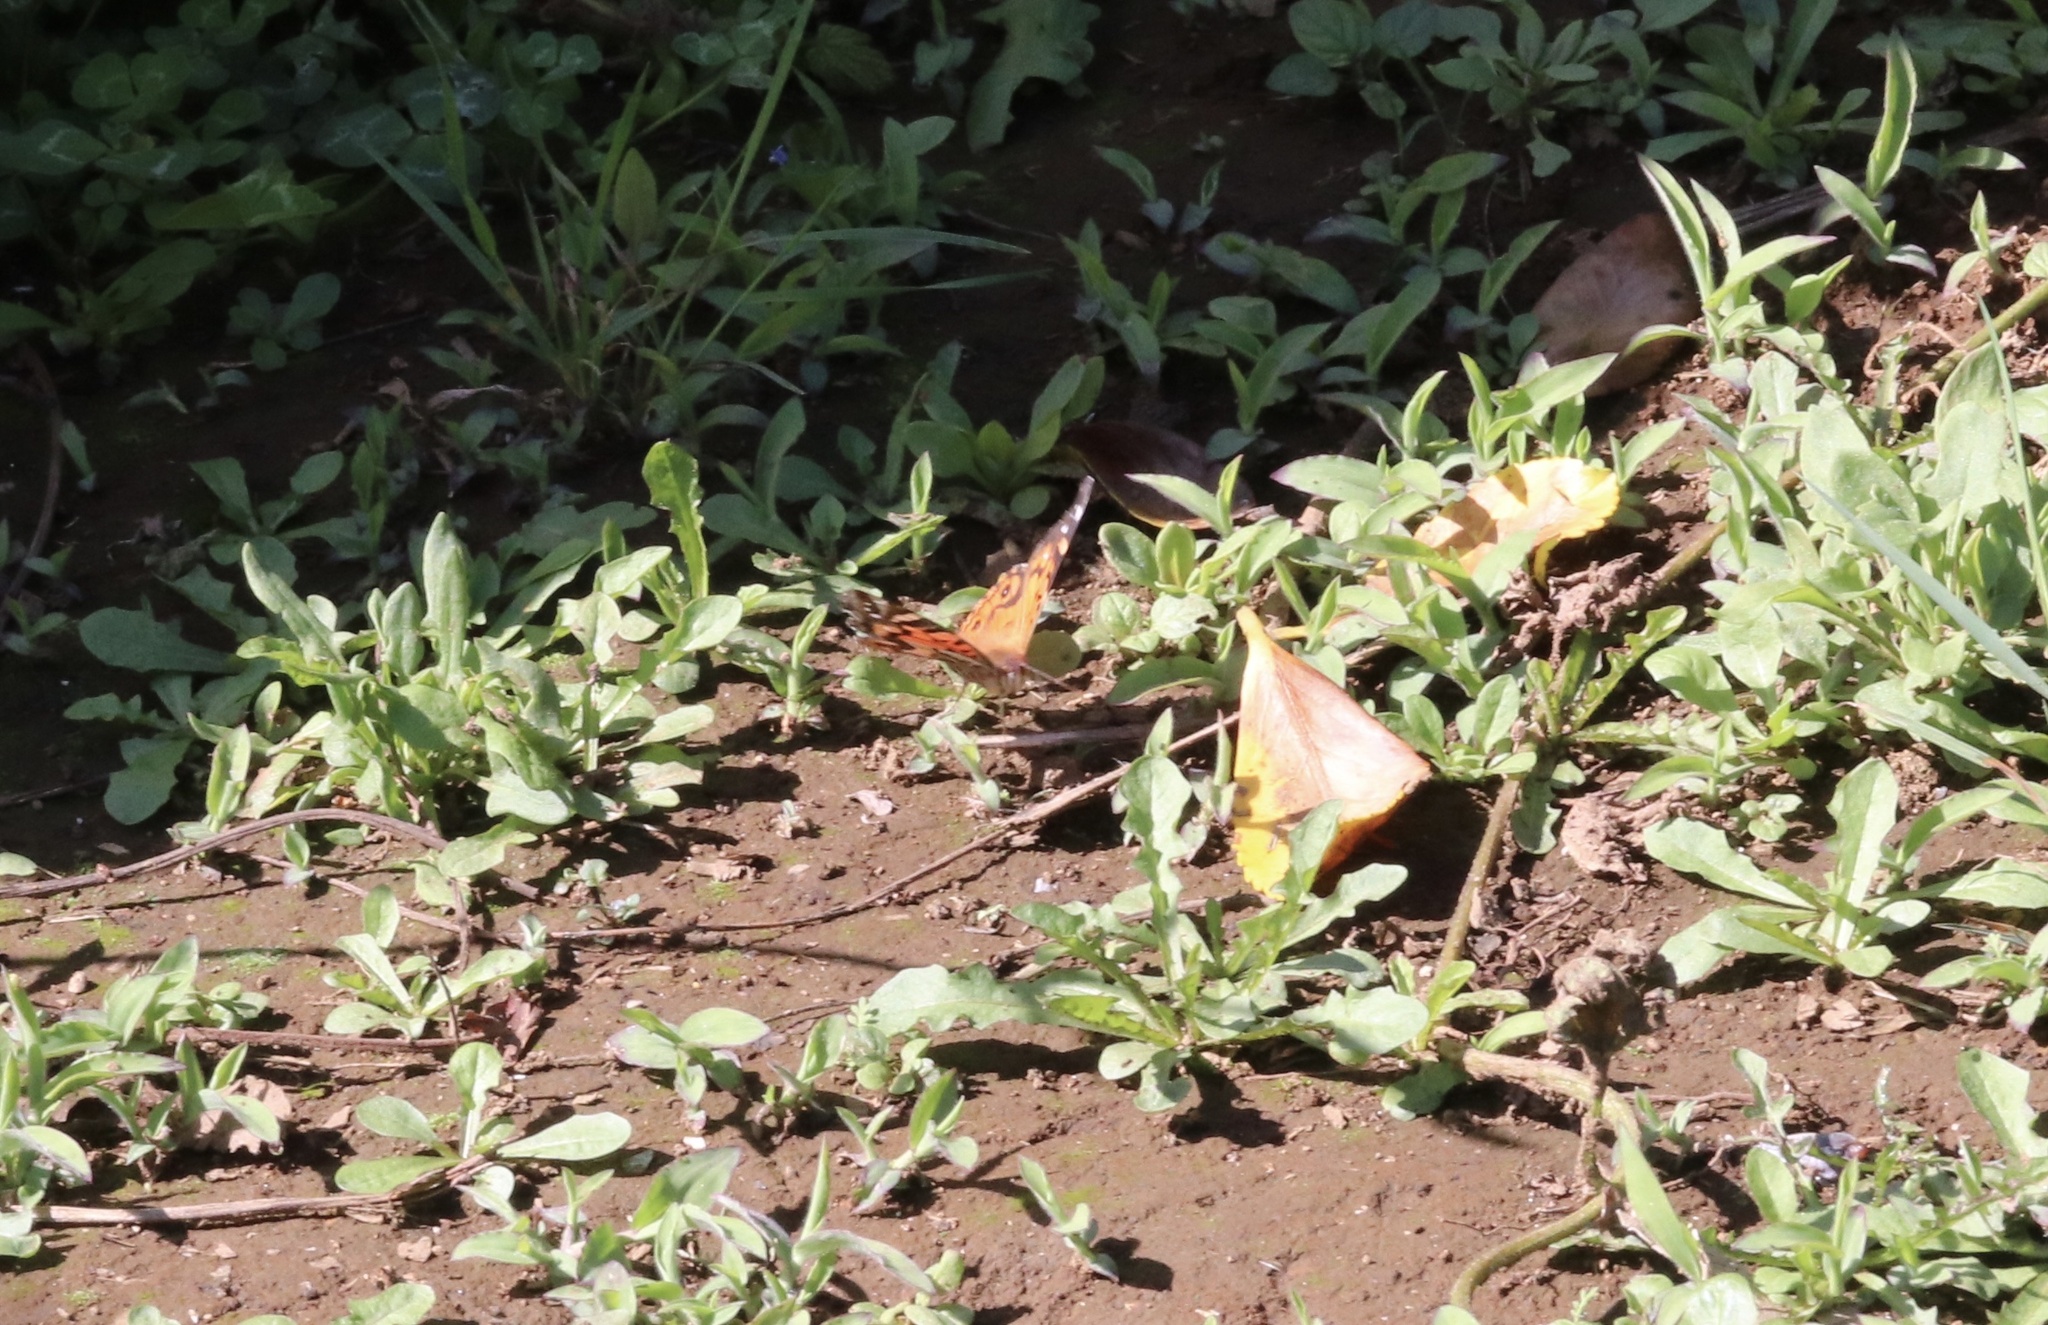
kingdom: Animalia
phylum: Arthropoda
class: Insecta
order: Lepidoptera
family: Nymphalidae
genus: Vanessa
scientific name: Vanessa terpsichore
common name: Chilean lady
